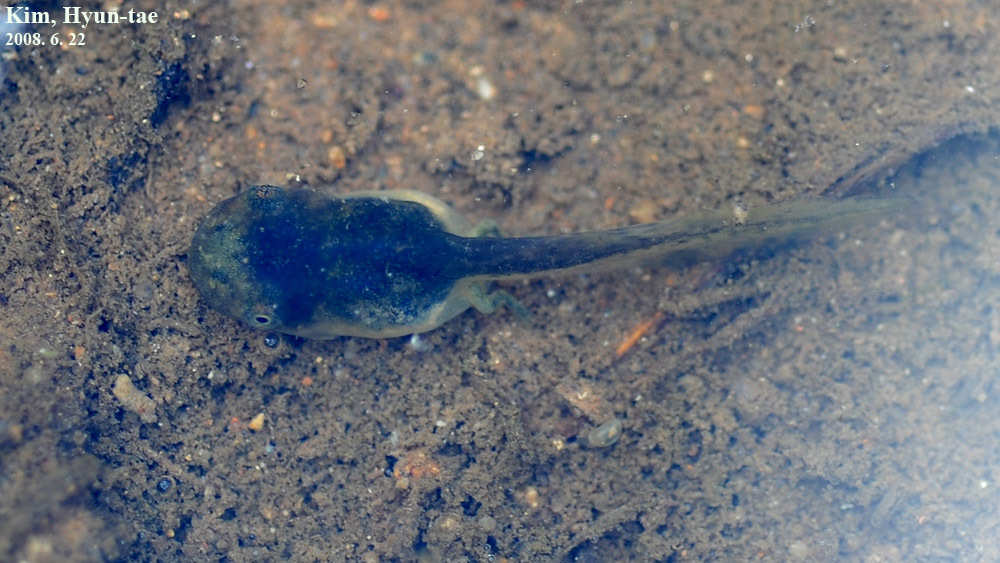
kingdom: Animalia
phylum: Chordata
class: Amphibia
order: Anura
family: Hylidae
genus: Dryophytes
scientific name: Dryophytes japonicus
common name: Japanese treefrog
